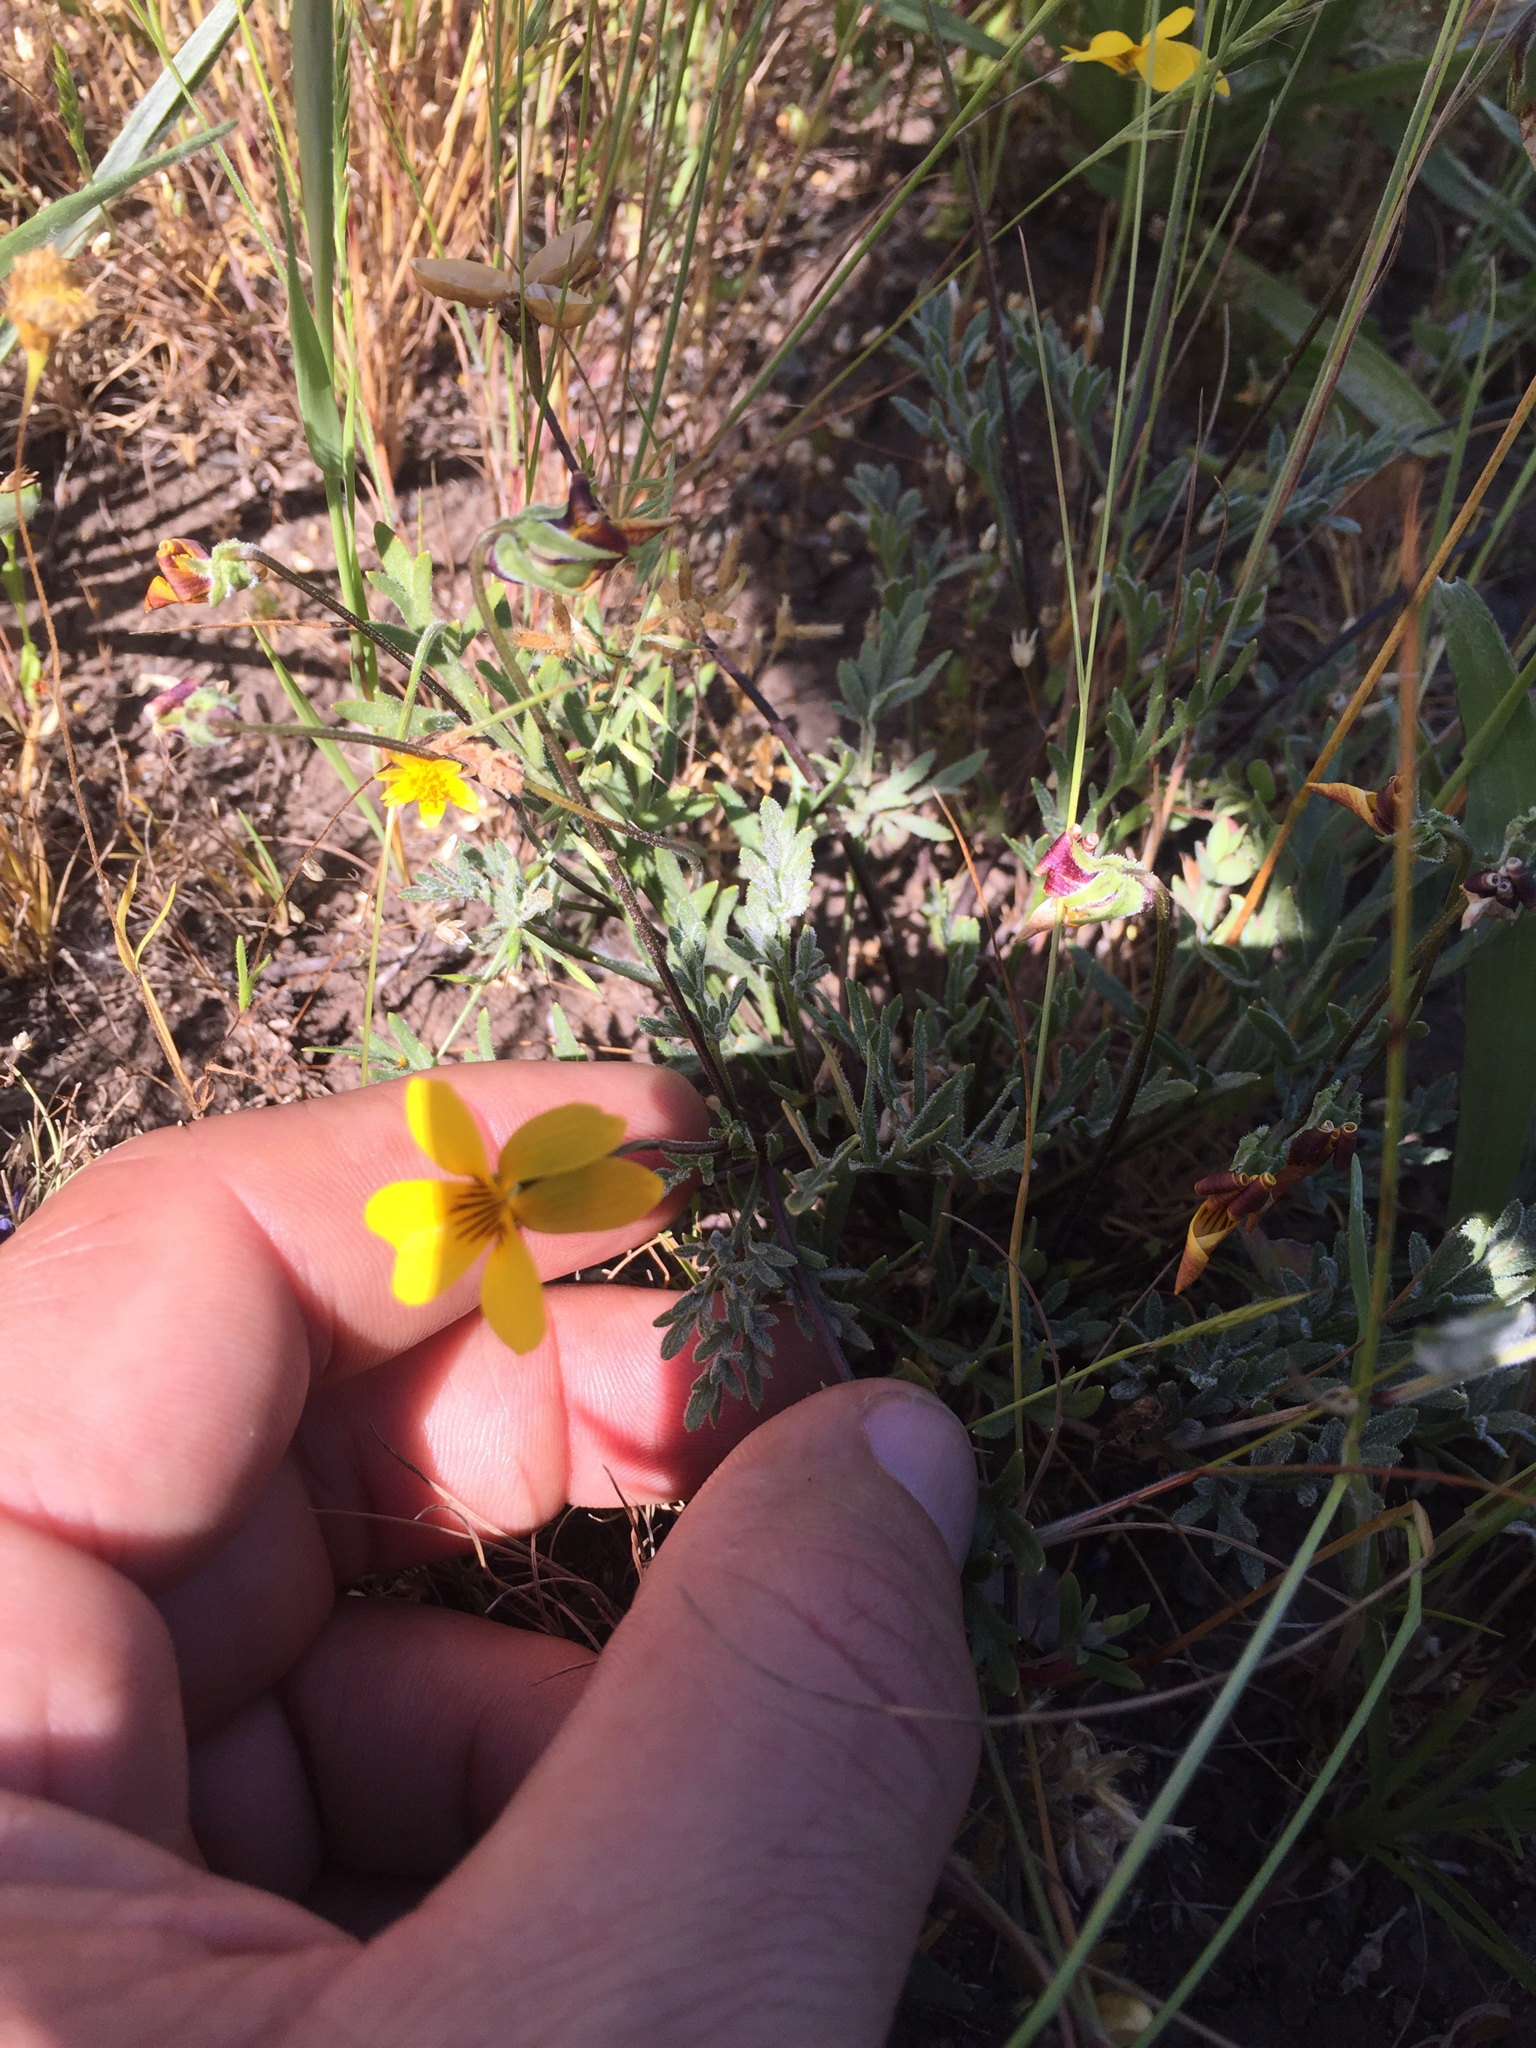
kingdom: Plantae
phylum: Tracheophyta
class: Magnoliopsida
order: Malpighiales
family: Violaceae
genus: Viola
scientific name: Viola douglasii
